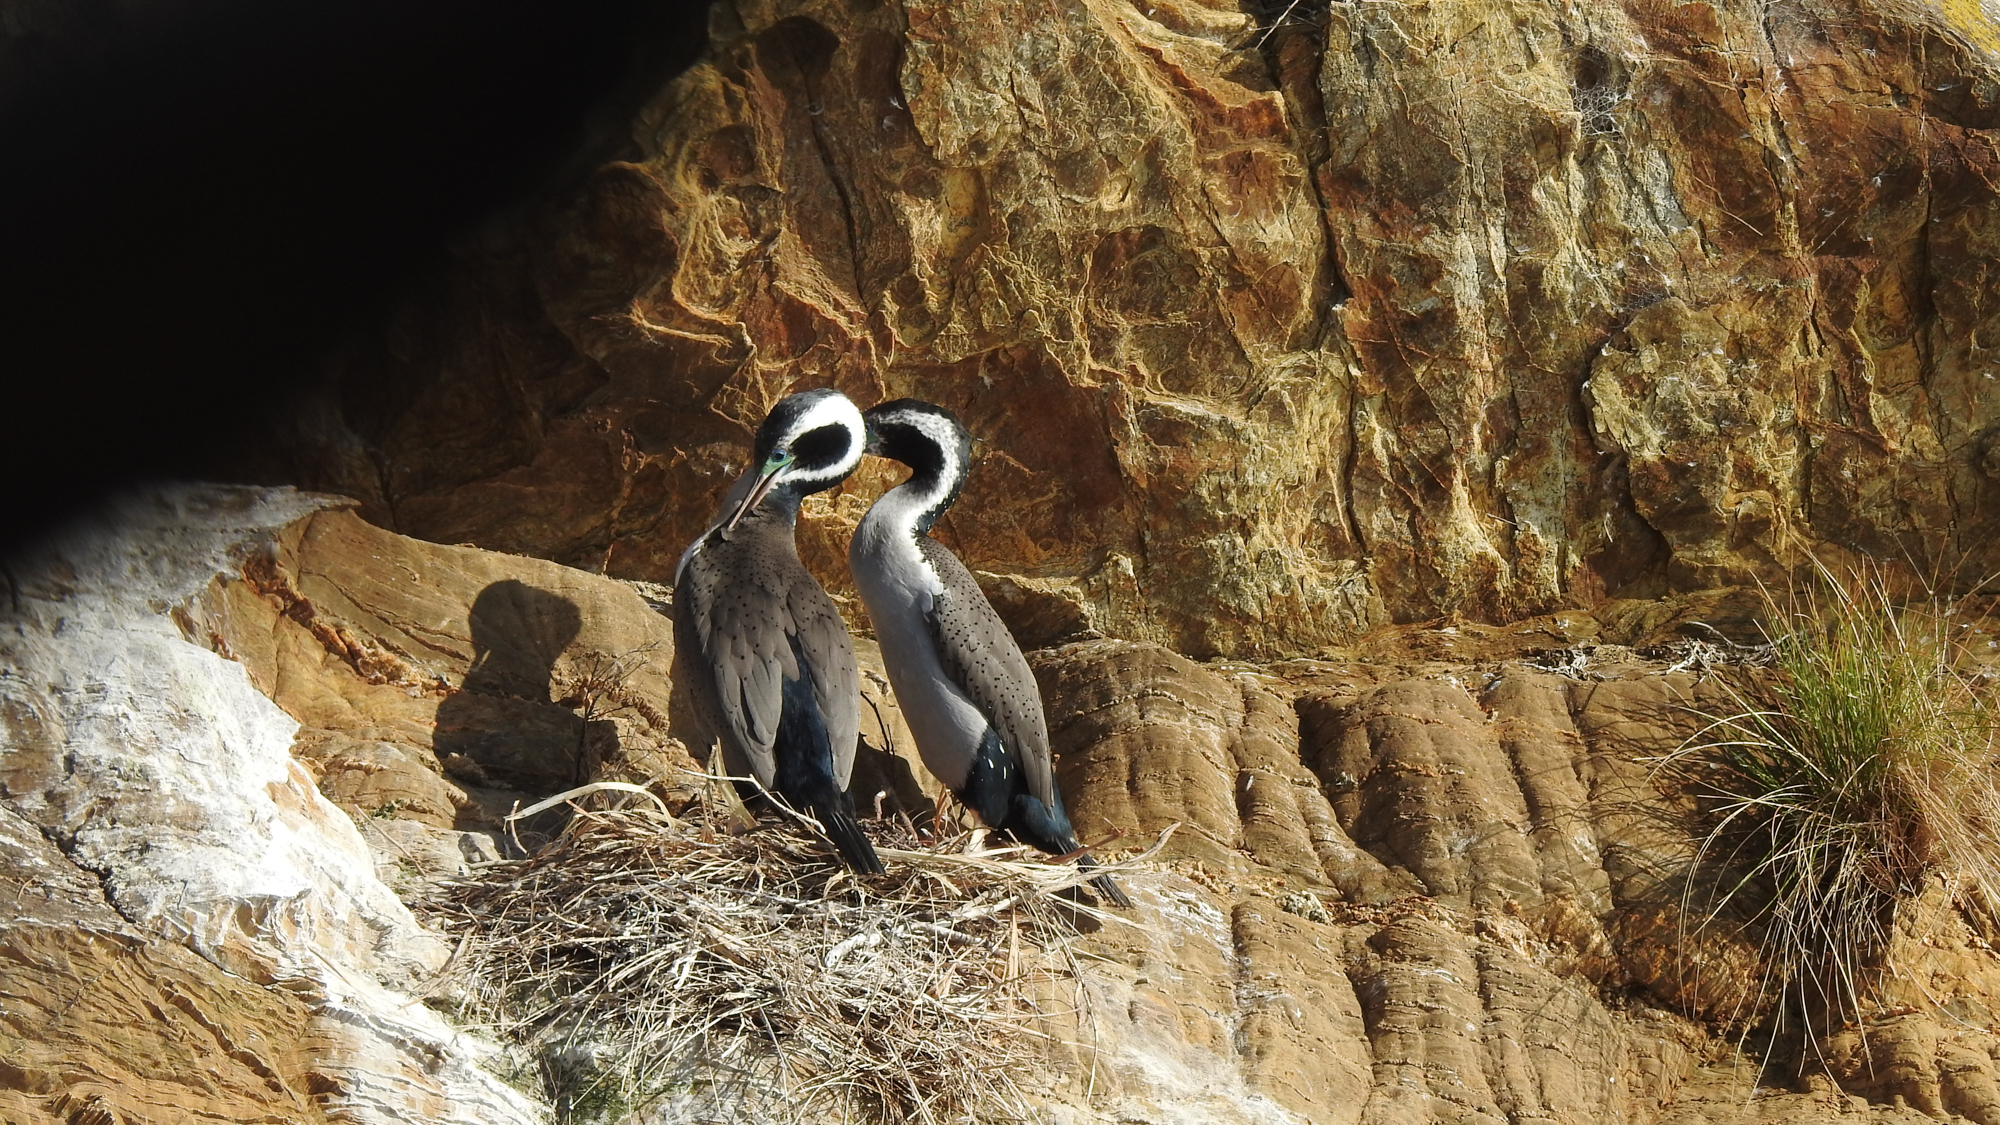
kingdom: Animalia
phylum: Chordata
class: Aves
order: Suliformes
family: Phalacrocoracidae
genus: Phalacrocorax
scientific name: Phalacrocorax punctatus
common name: Spotted shag
